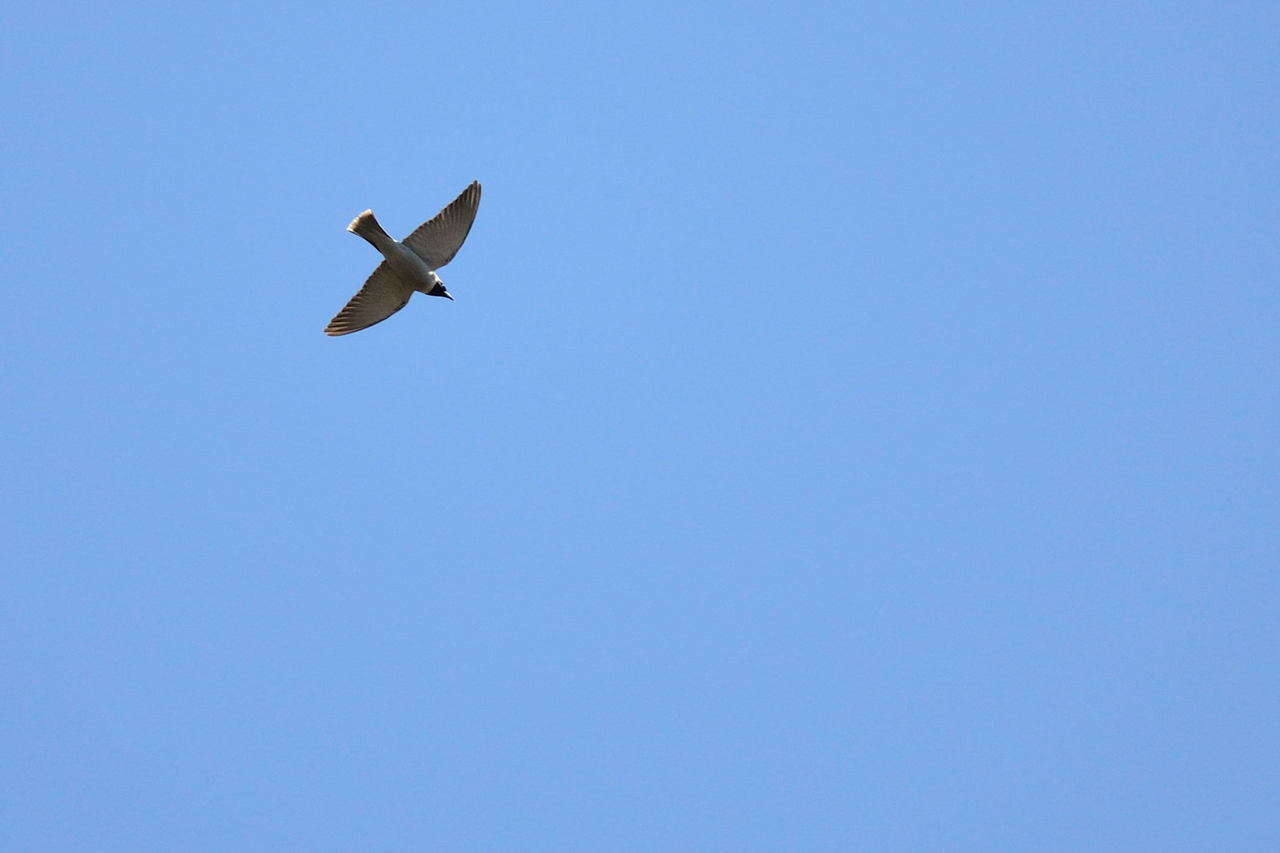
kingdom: Animalia
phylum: Chordata
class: Aves
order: Passeriformes
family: Artamidae
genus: Artamus
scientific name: Artamus personatus
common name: Masked woodswallow
